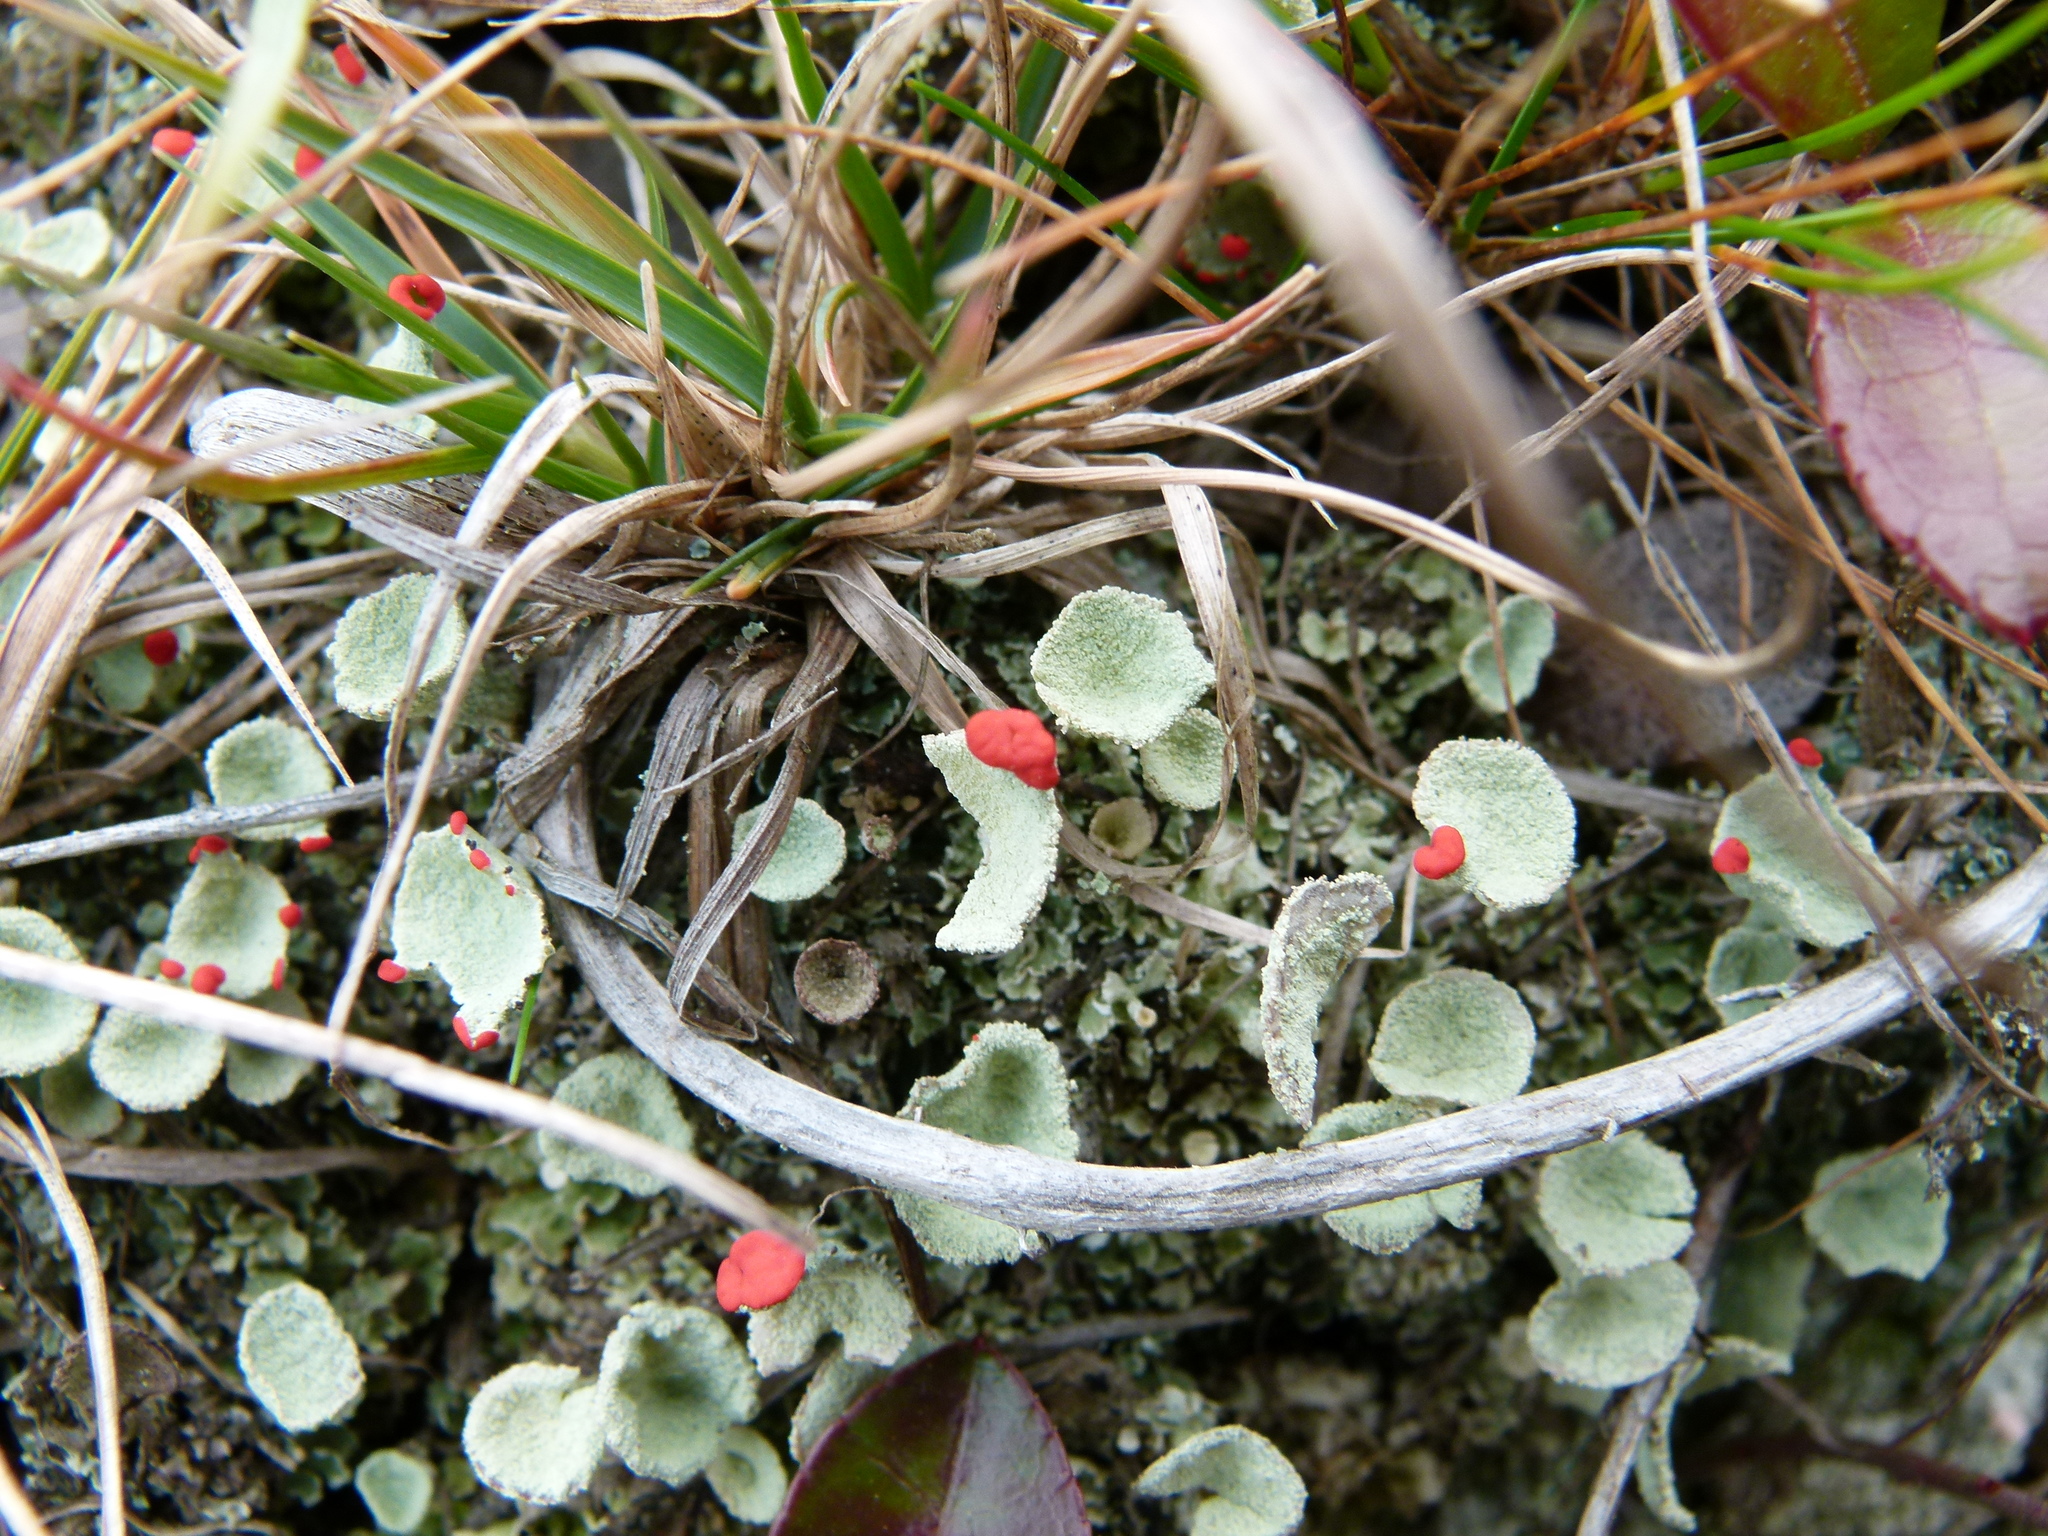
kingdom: Fungi
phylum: Ascomycota
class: Lecanoromycetes
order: Lecanorales
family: Cladoniaceae
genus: Cladonia
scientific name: Cladonia pleurota
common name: Red-fruited pixie cup
